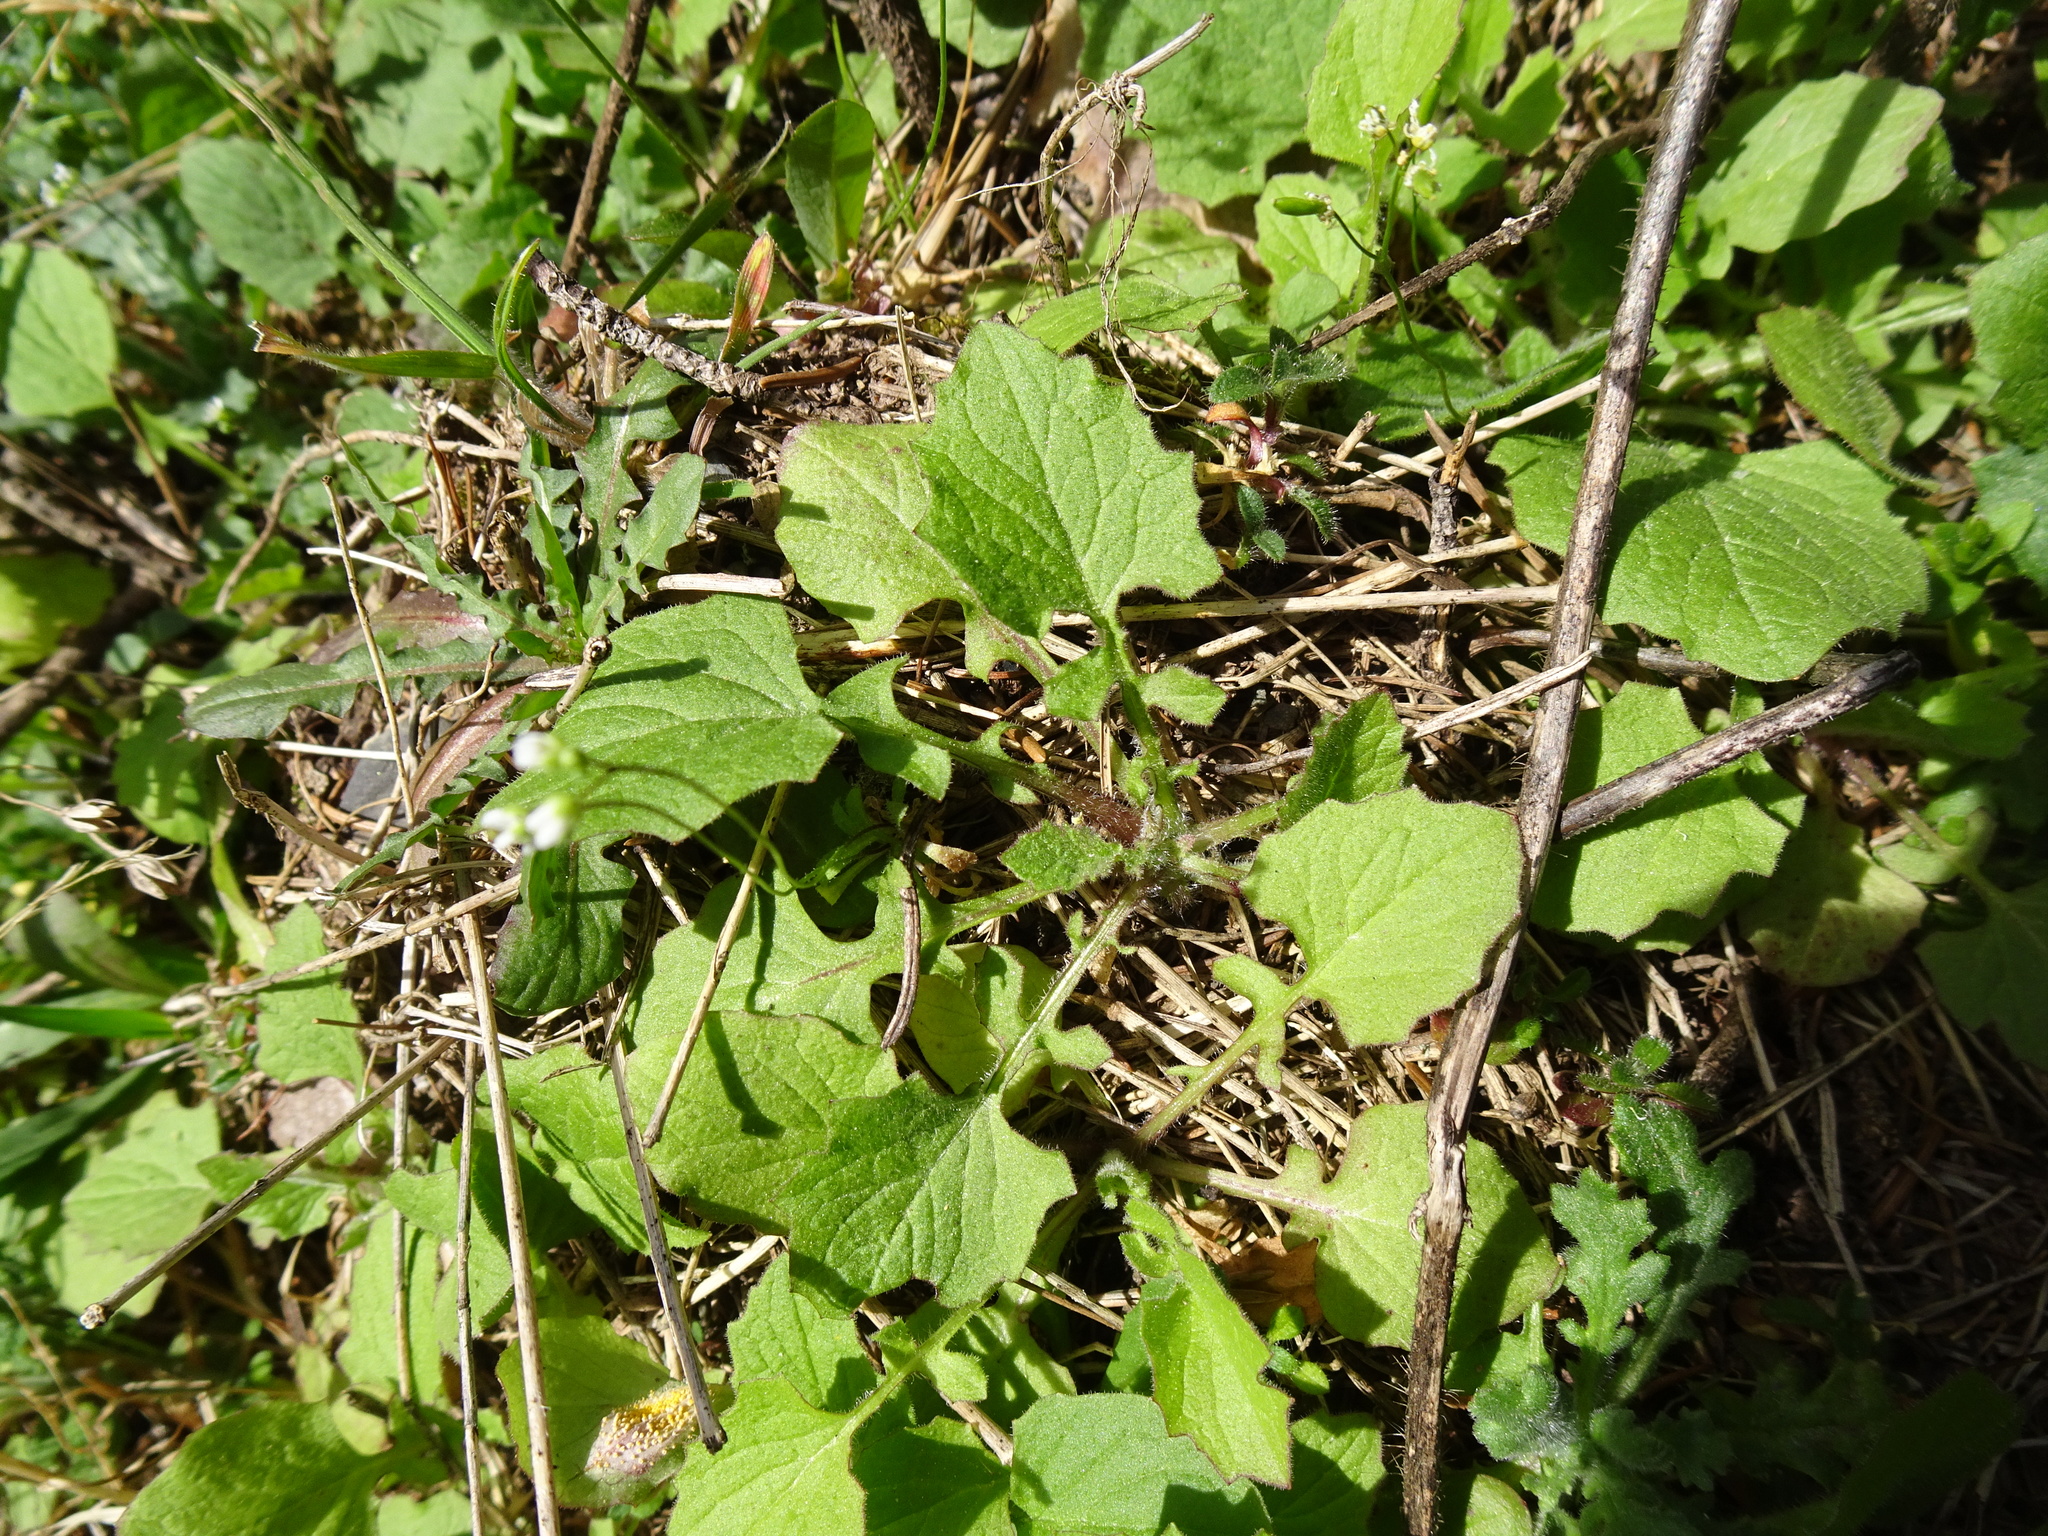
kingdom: Plantae
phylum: Tracheophyta
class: Magnoliopsida
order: Asterales
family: Asteraceae
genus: Lapsana
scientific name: Lapsana communis
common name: Nipplewort
